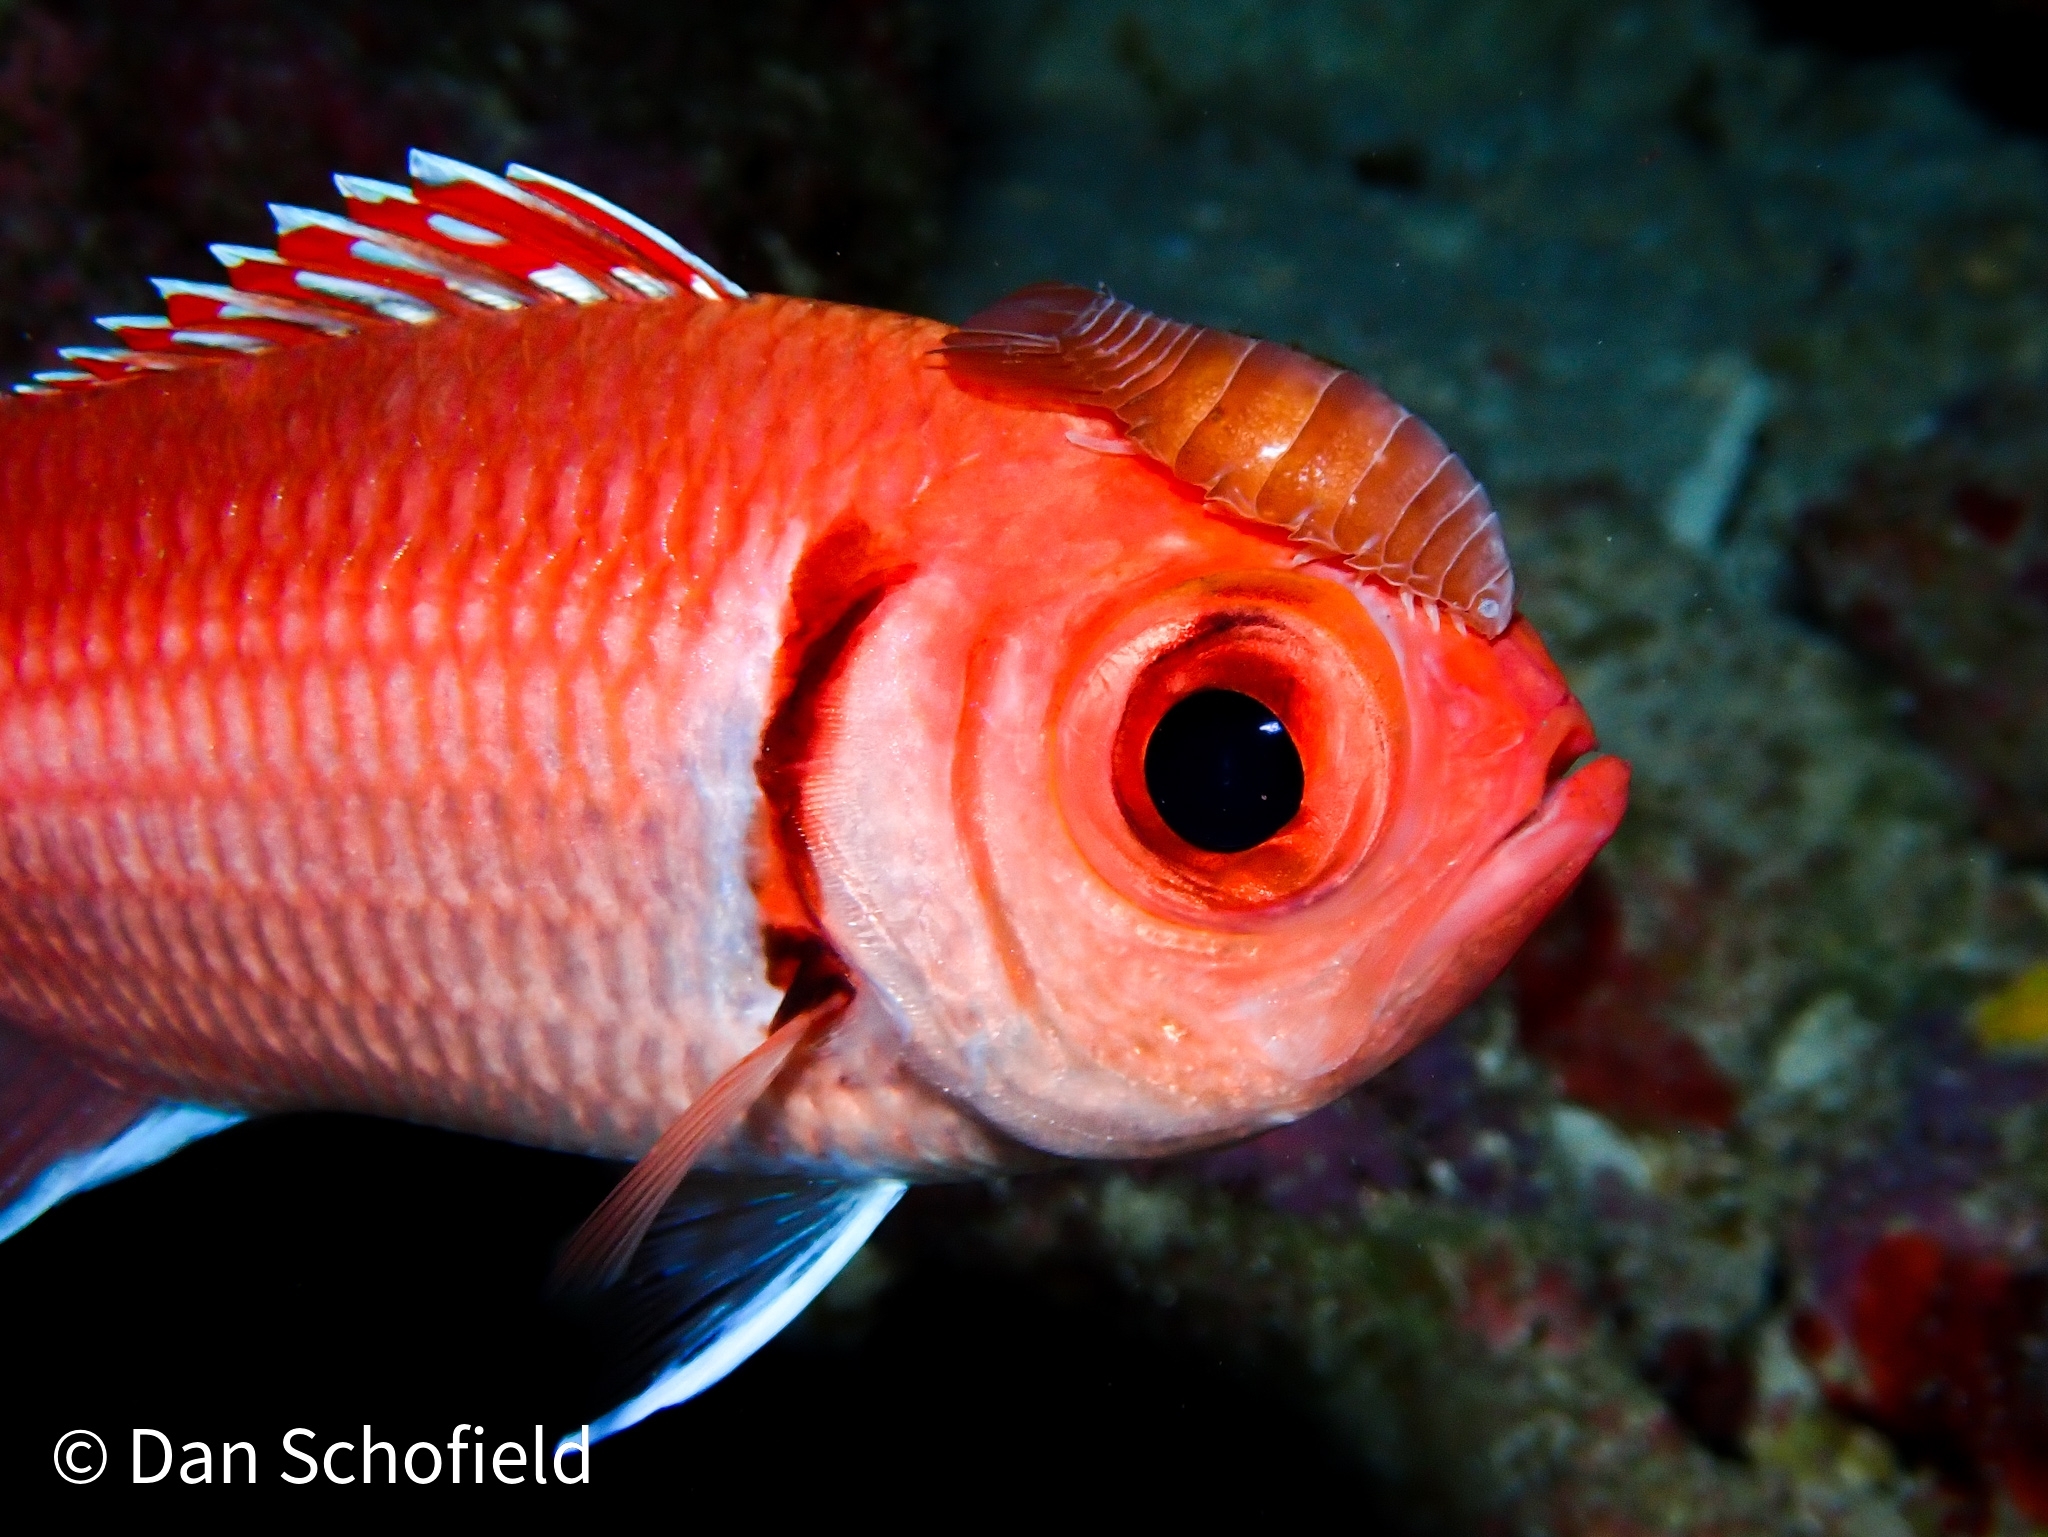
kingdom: Animalia
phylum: Chordata
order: Beryciformes
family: Holocentridae
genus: Myripristis
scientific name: Myripristis jacobus
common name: Blackbar soldierfish
